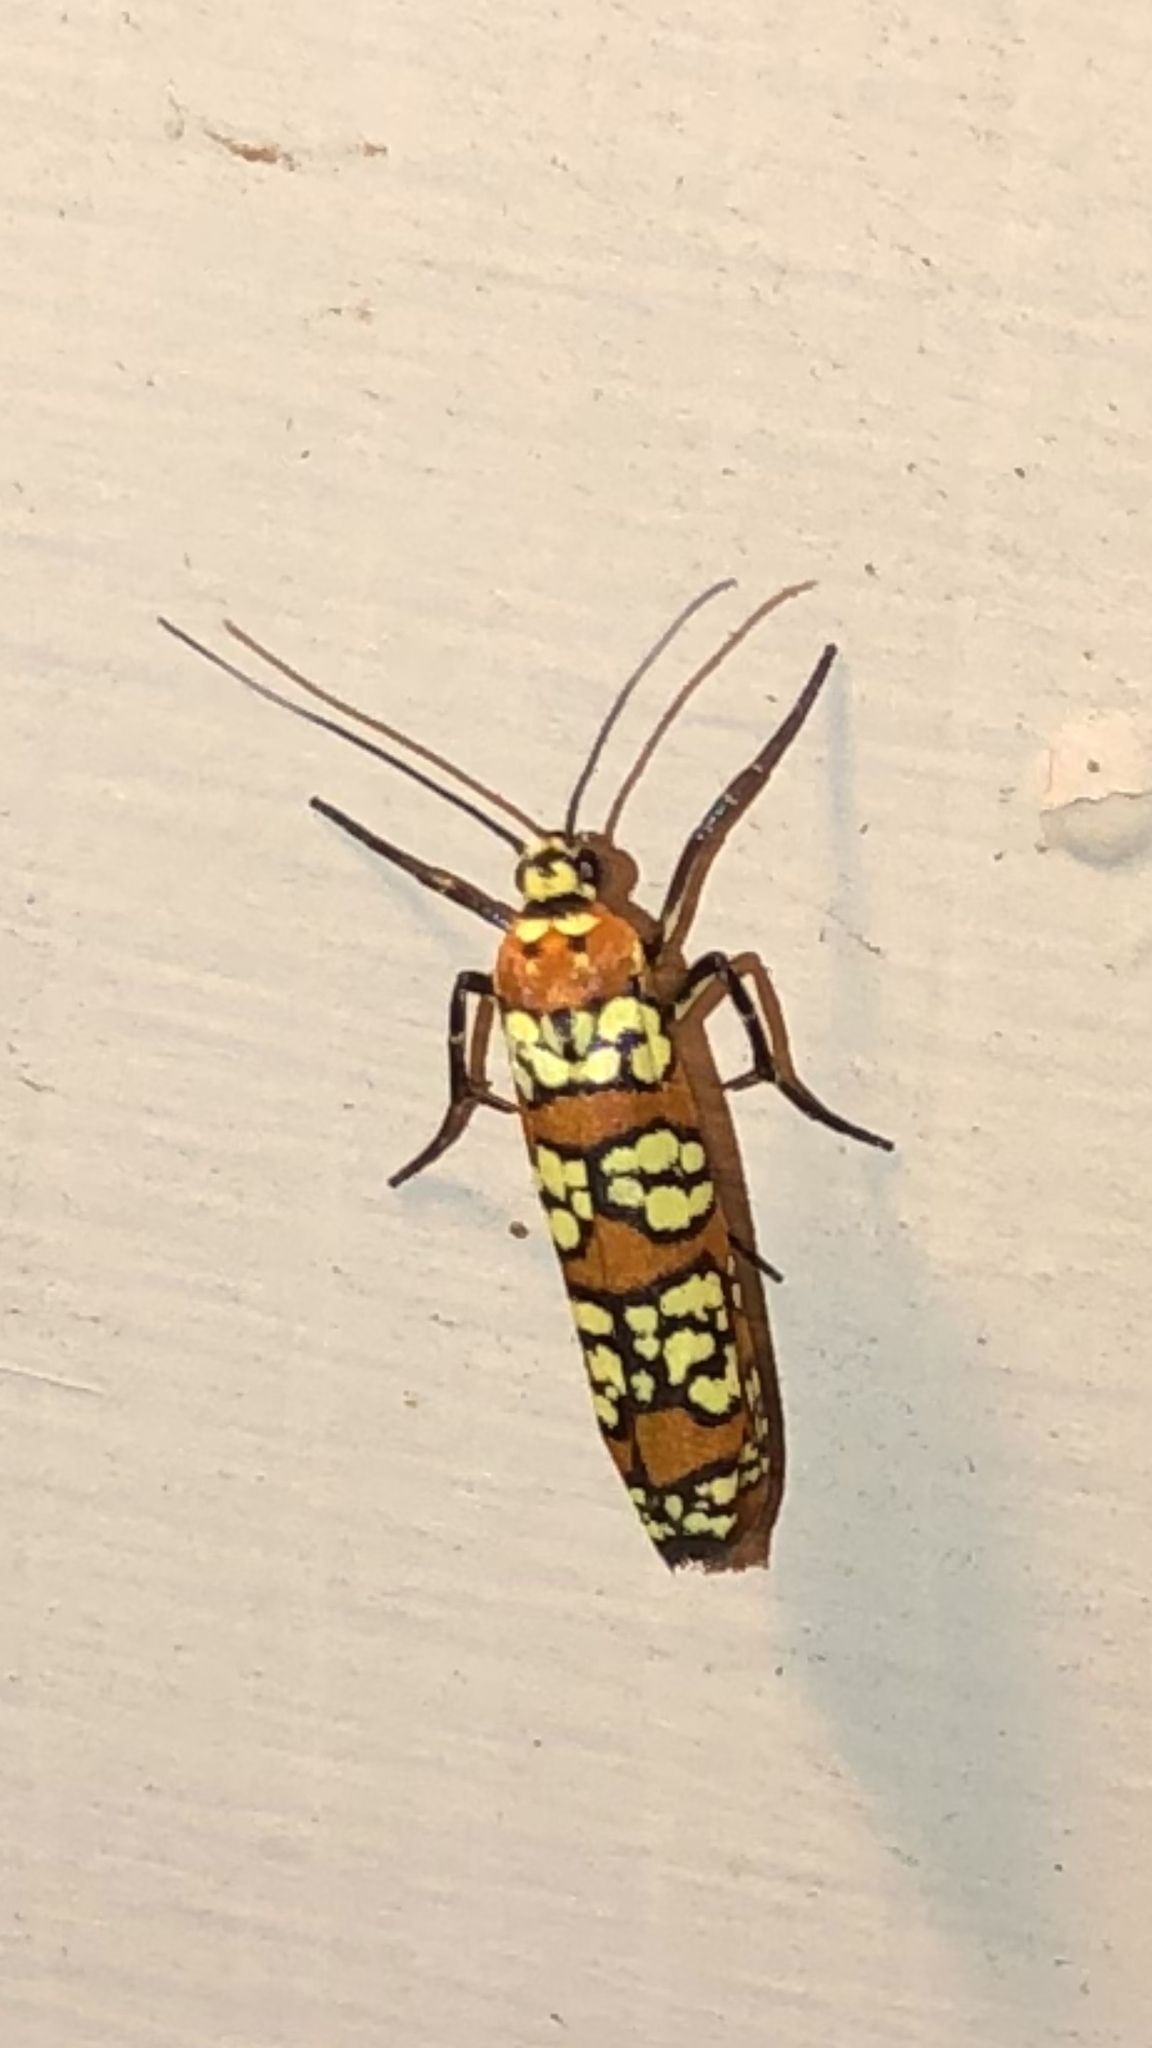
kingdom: Animalia
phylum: Arthropoda
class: Insecta
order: Lepidoptera
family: Attevidae
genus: Atteva
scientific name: Atteva punctella
